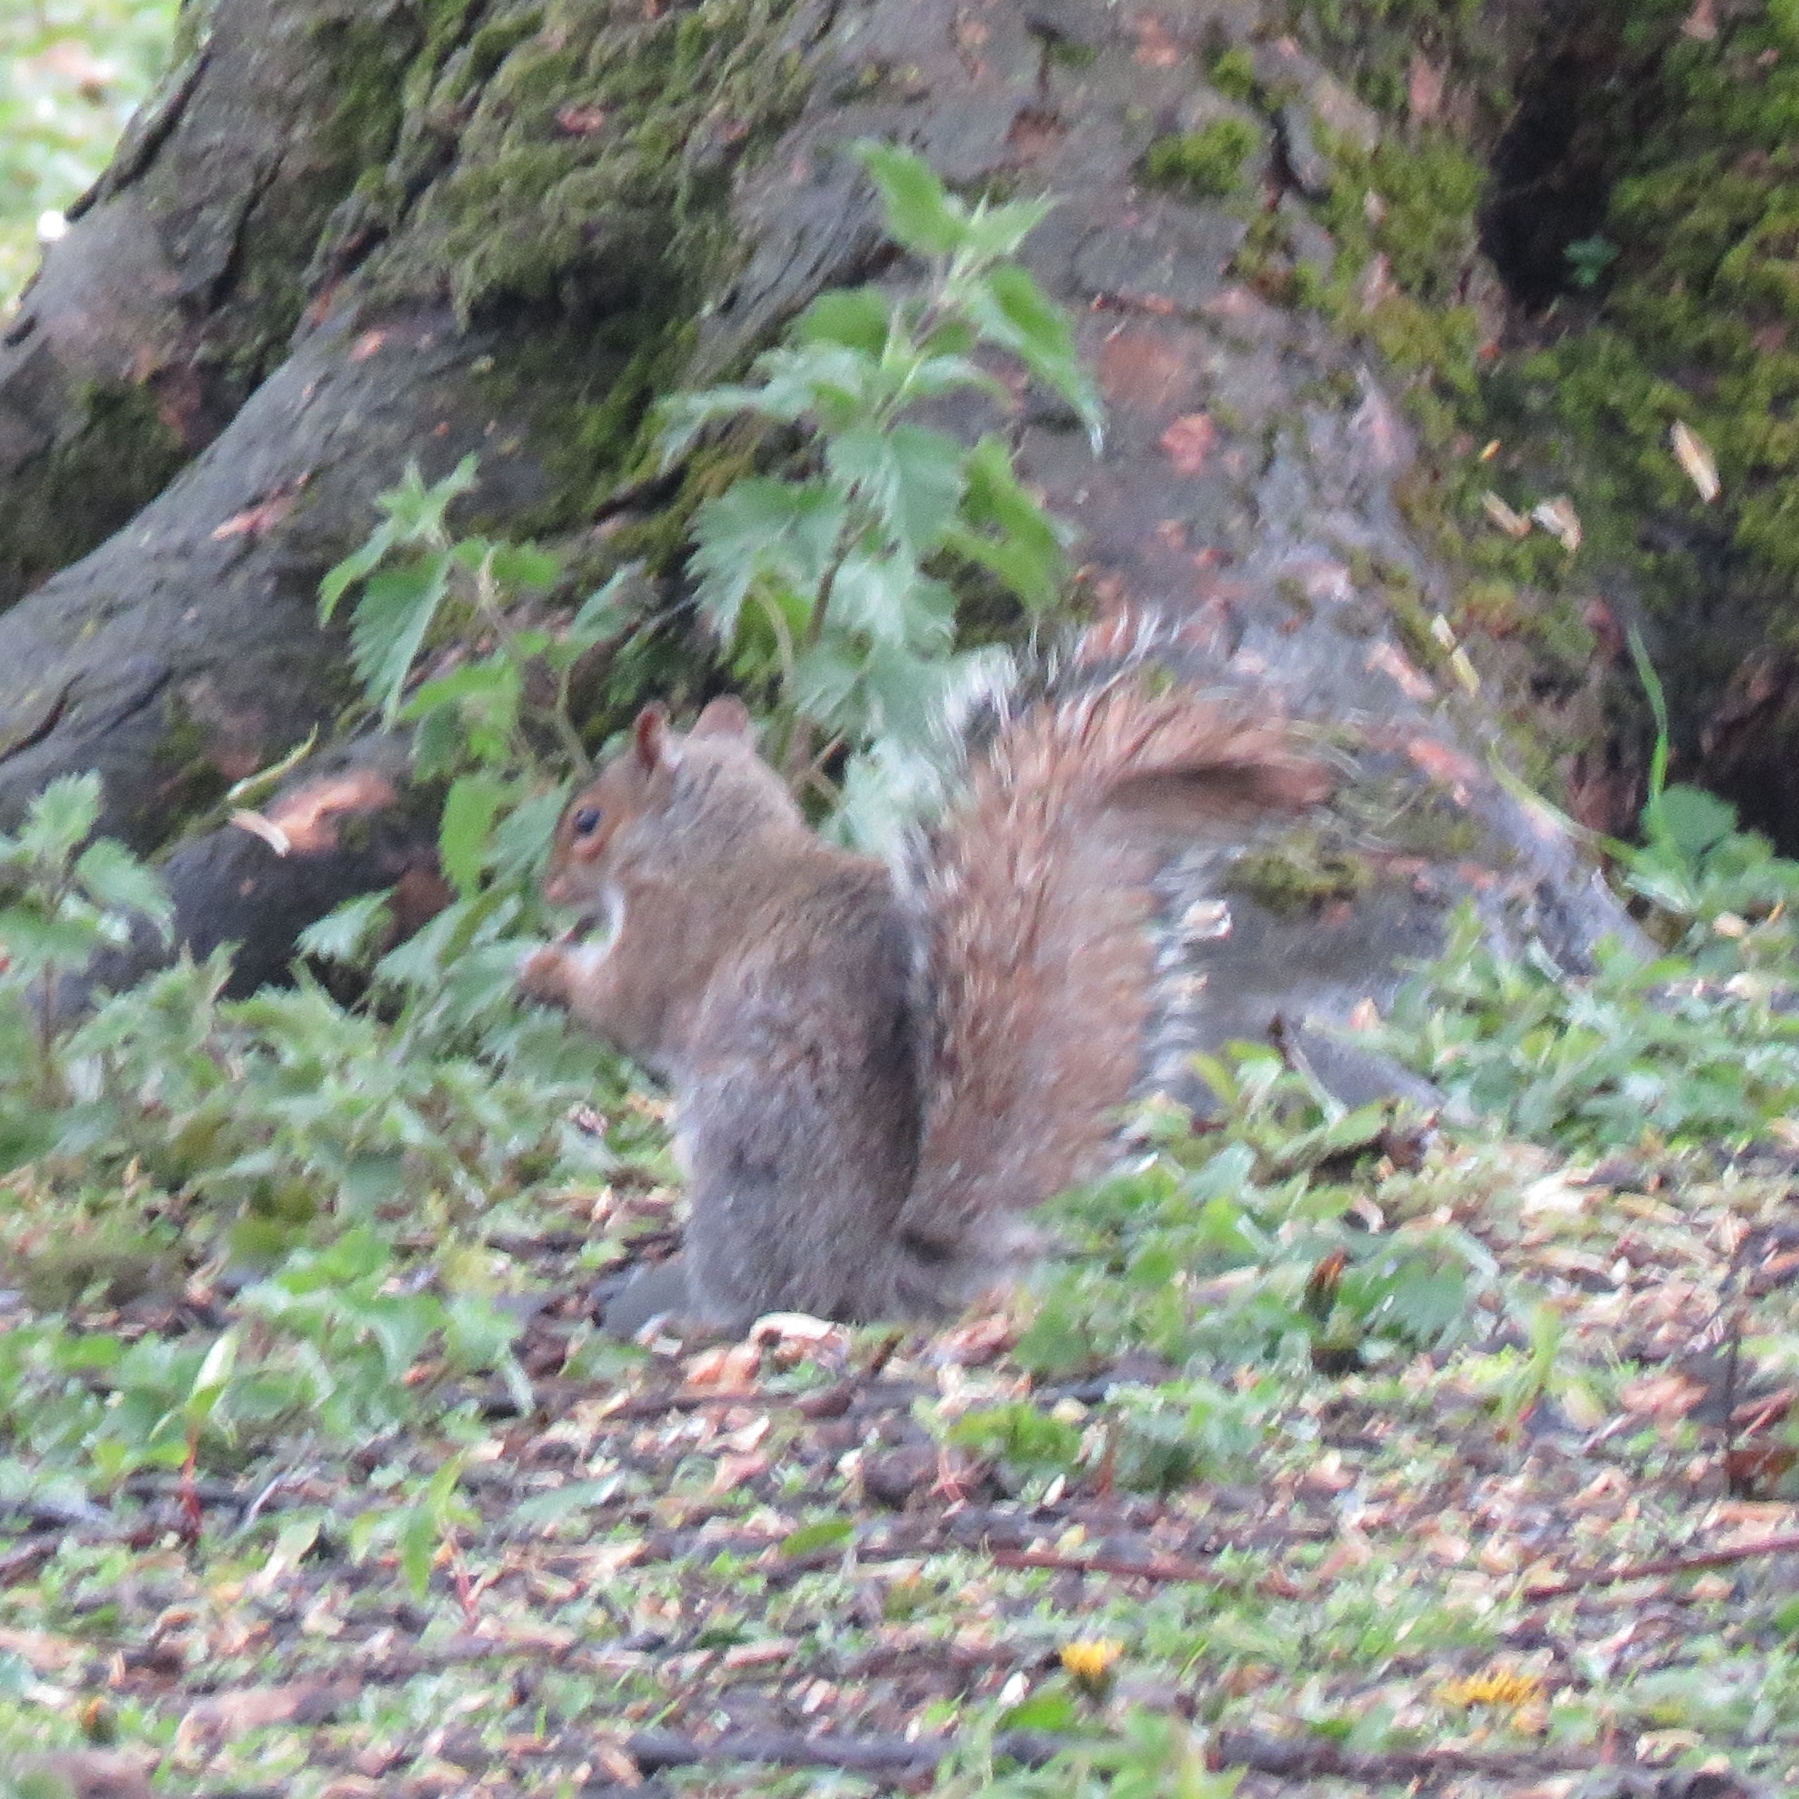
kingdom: Animalia
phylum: Chordata
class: Mammalia
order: Rodentia
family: Sciuridae
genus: Sciurus
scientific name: Sciurus carolinensis
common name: Eastern gray squirrel
